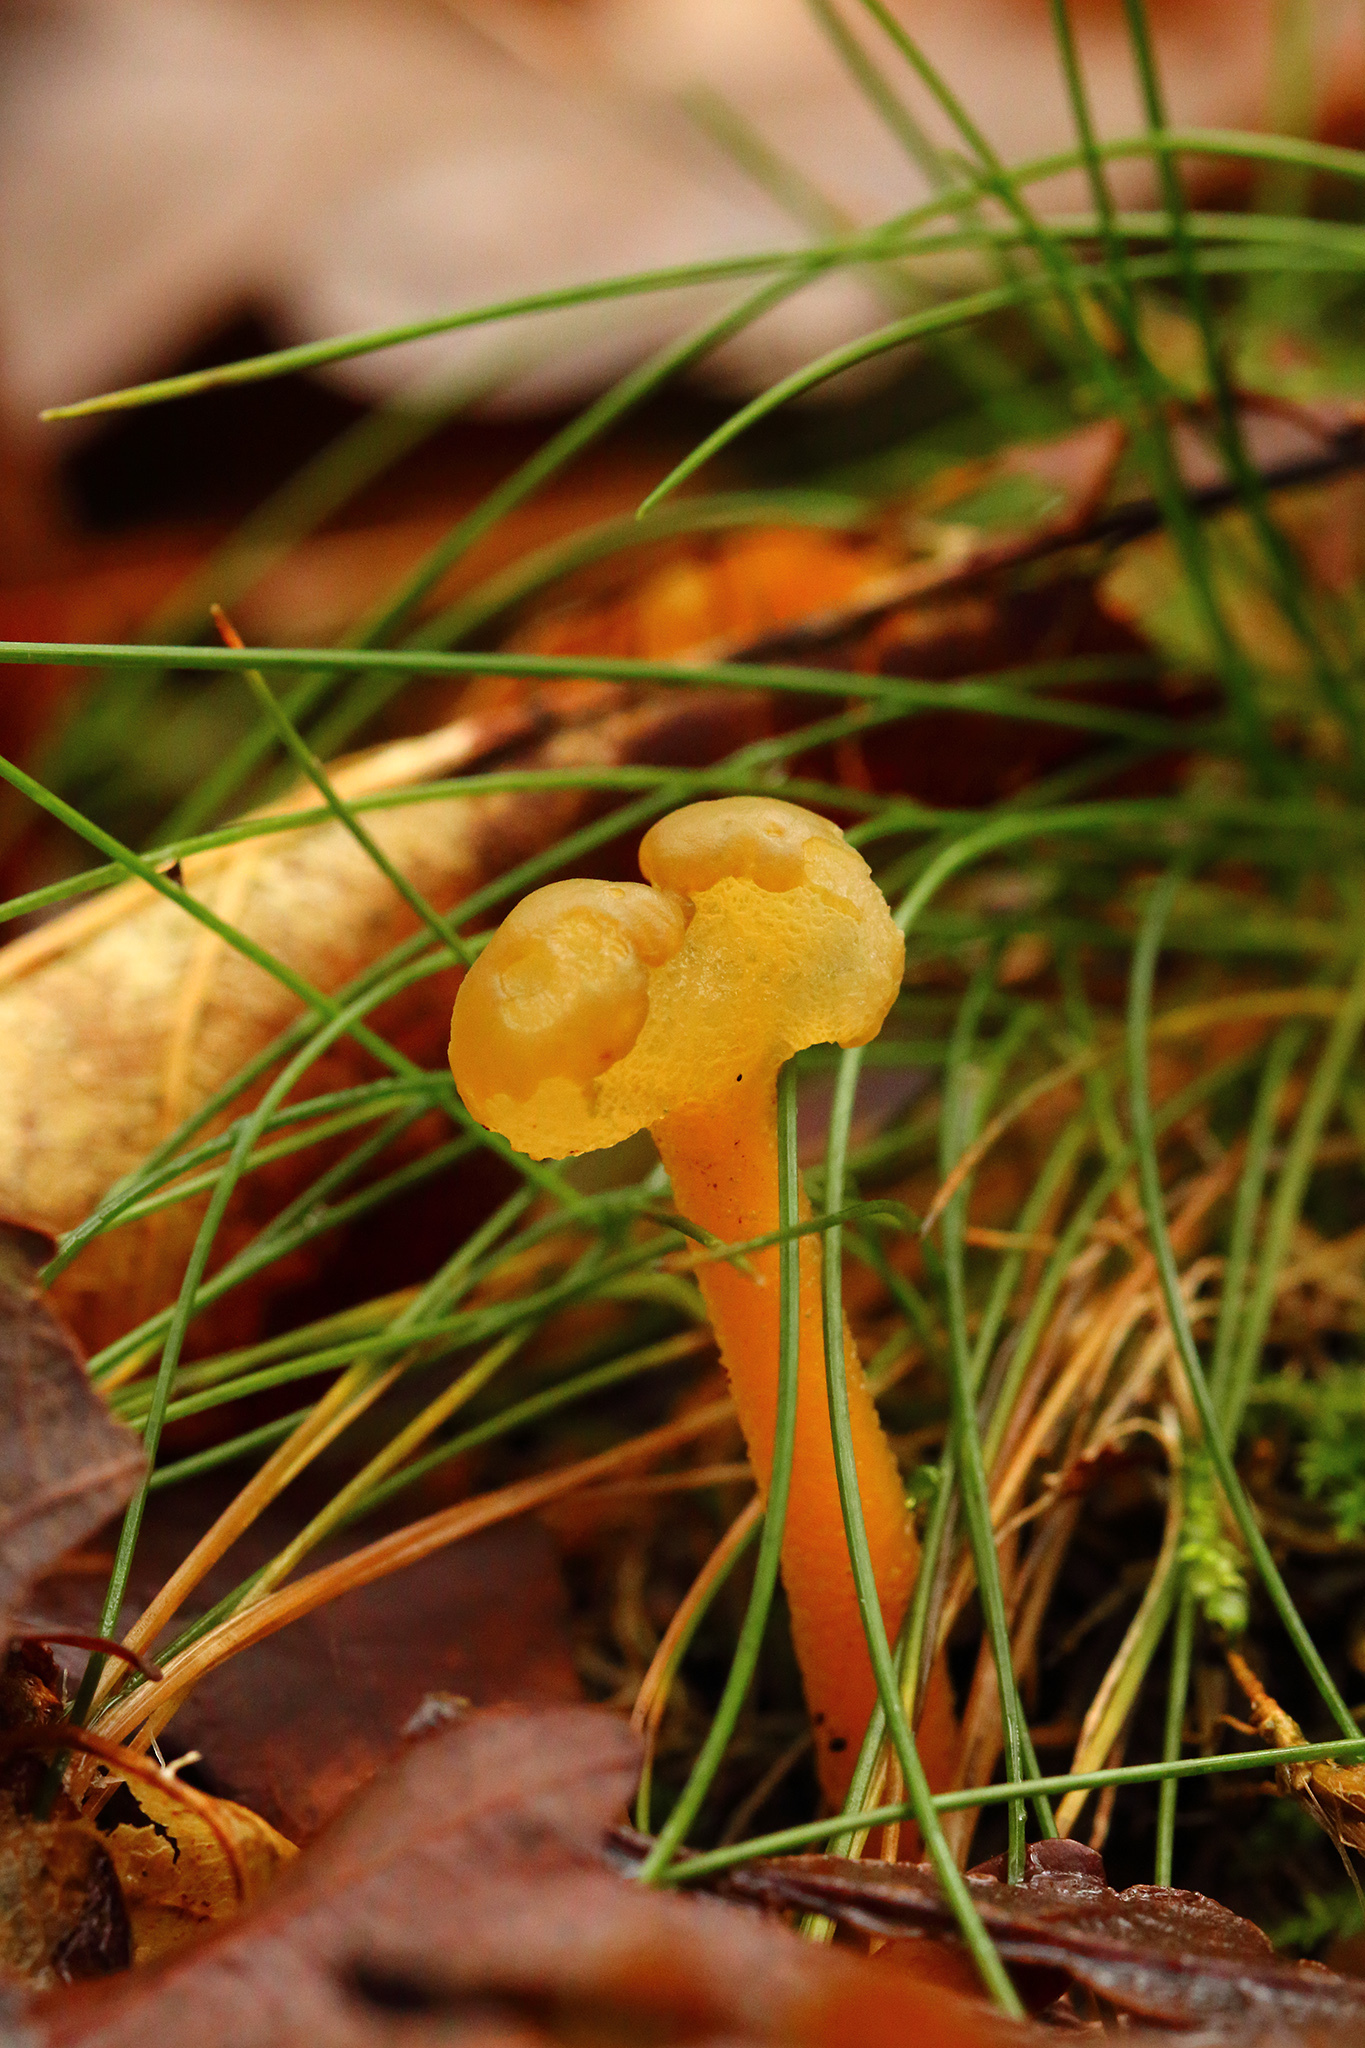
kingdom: Fungi
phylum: Ascomycota
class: Leotiomycetes
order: Leotiales
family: Leotiaceae
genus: Leotia
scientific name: Leotia lubrica
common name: Jellybaby
